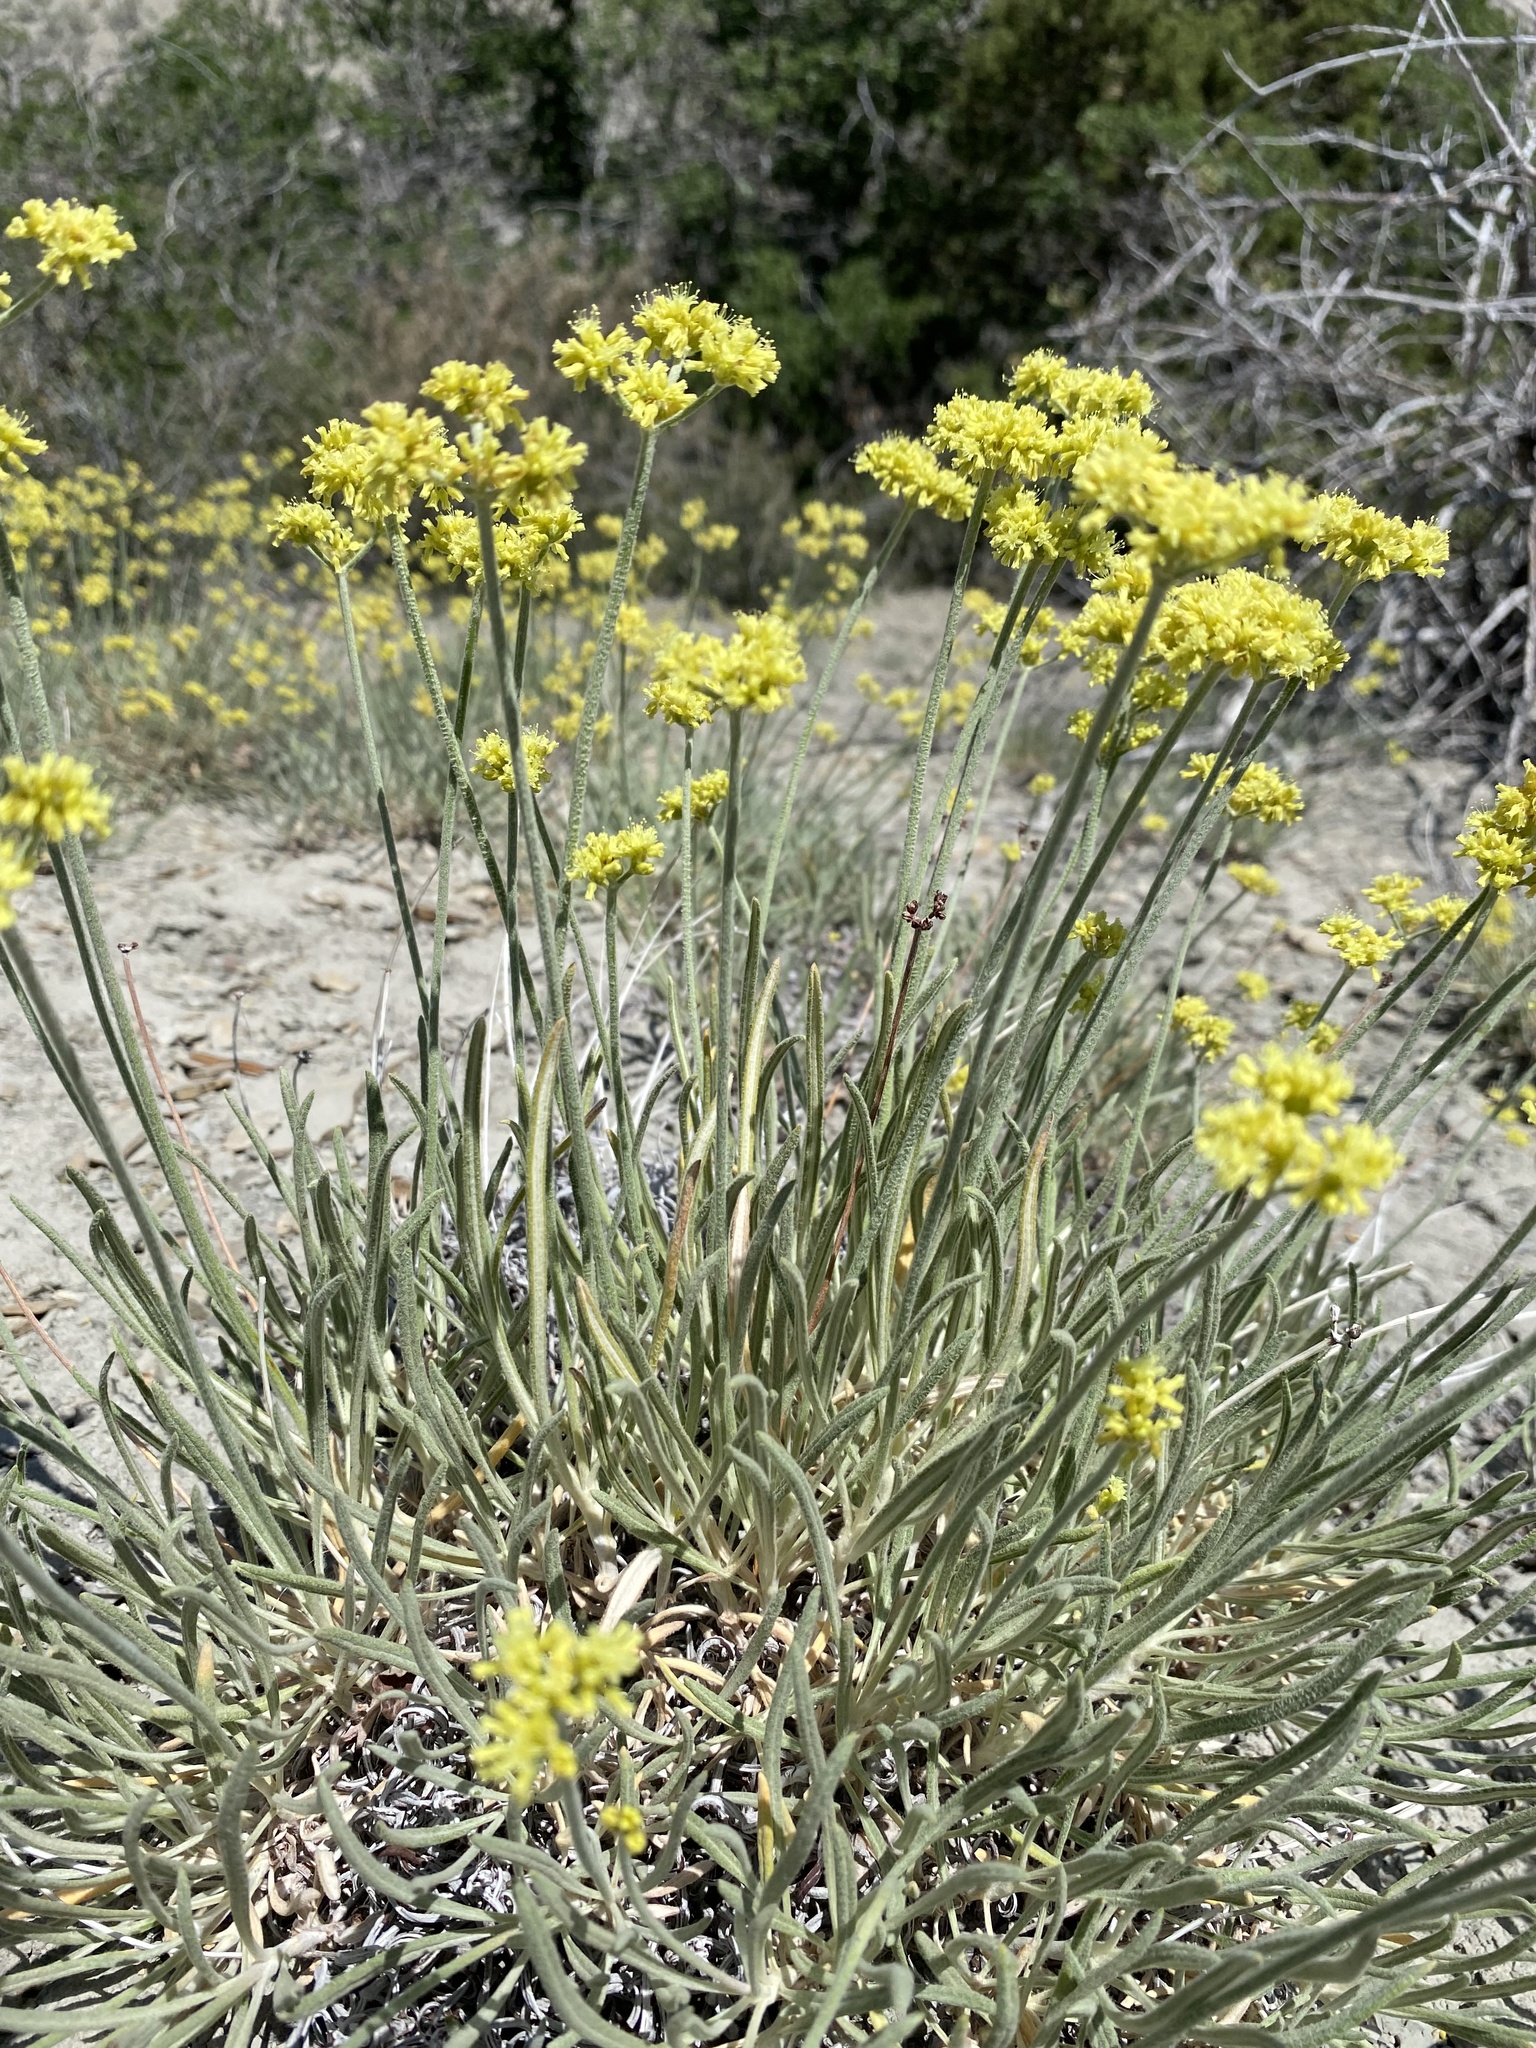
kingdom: Plantae
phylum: Tracheophyta
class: Magnoliopsida
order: Caryophyllales
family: Polygonaceae
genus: Eriogonum
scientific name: Eriogonum brevicaule
